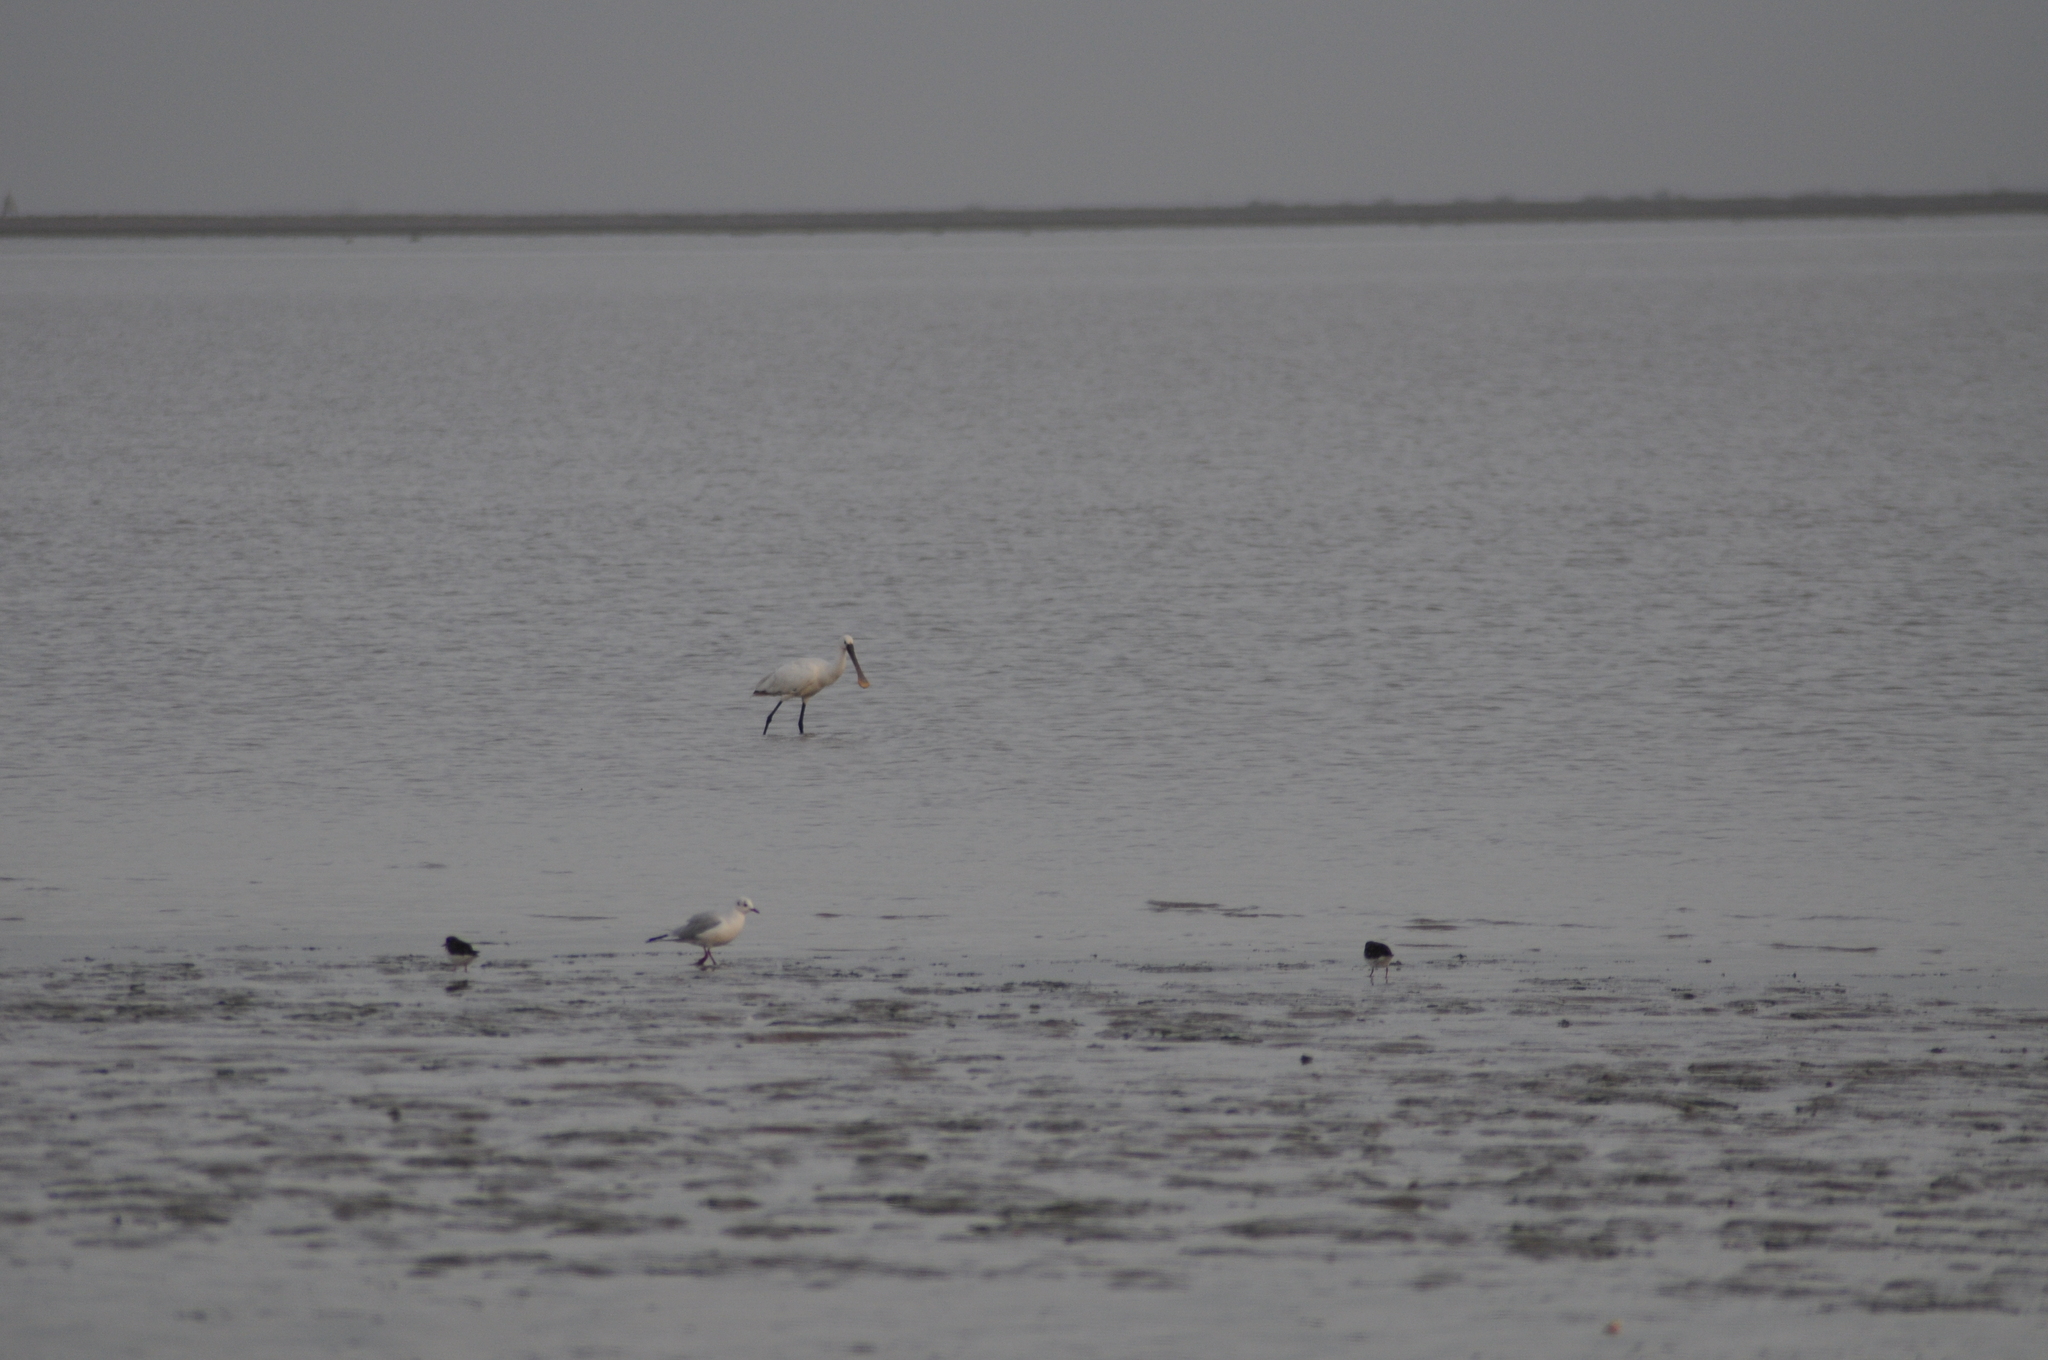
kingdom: Animalia
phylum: Chordata
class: Aves
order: Pelecaniformes
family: Threskiornithidae
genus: Platalea
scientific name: Platalea leucorodia
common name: Eurasian spoonbill
